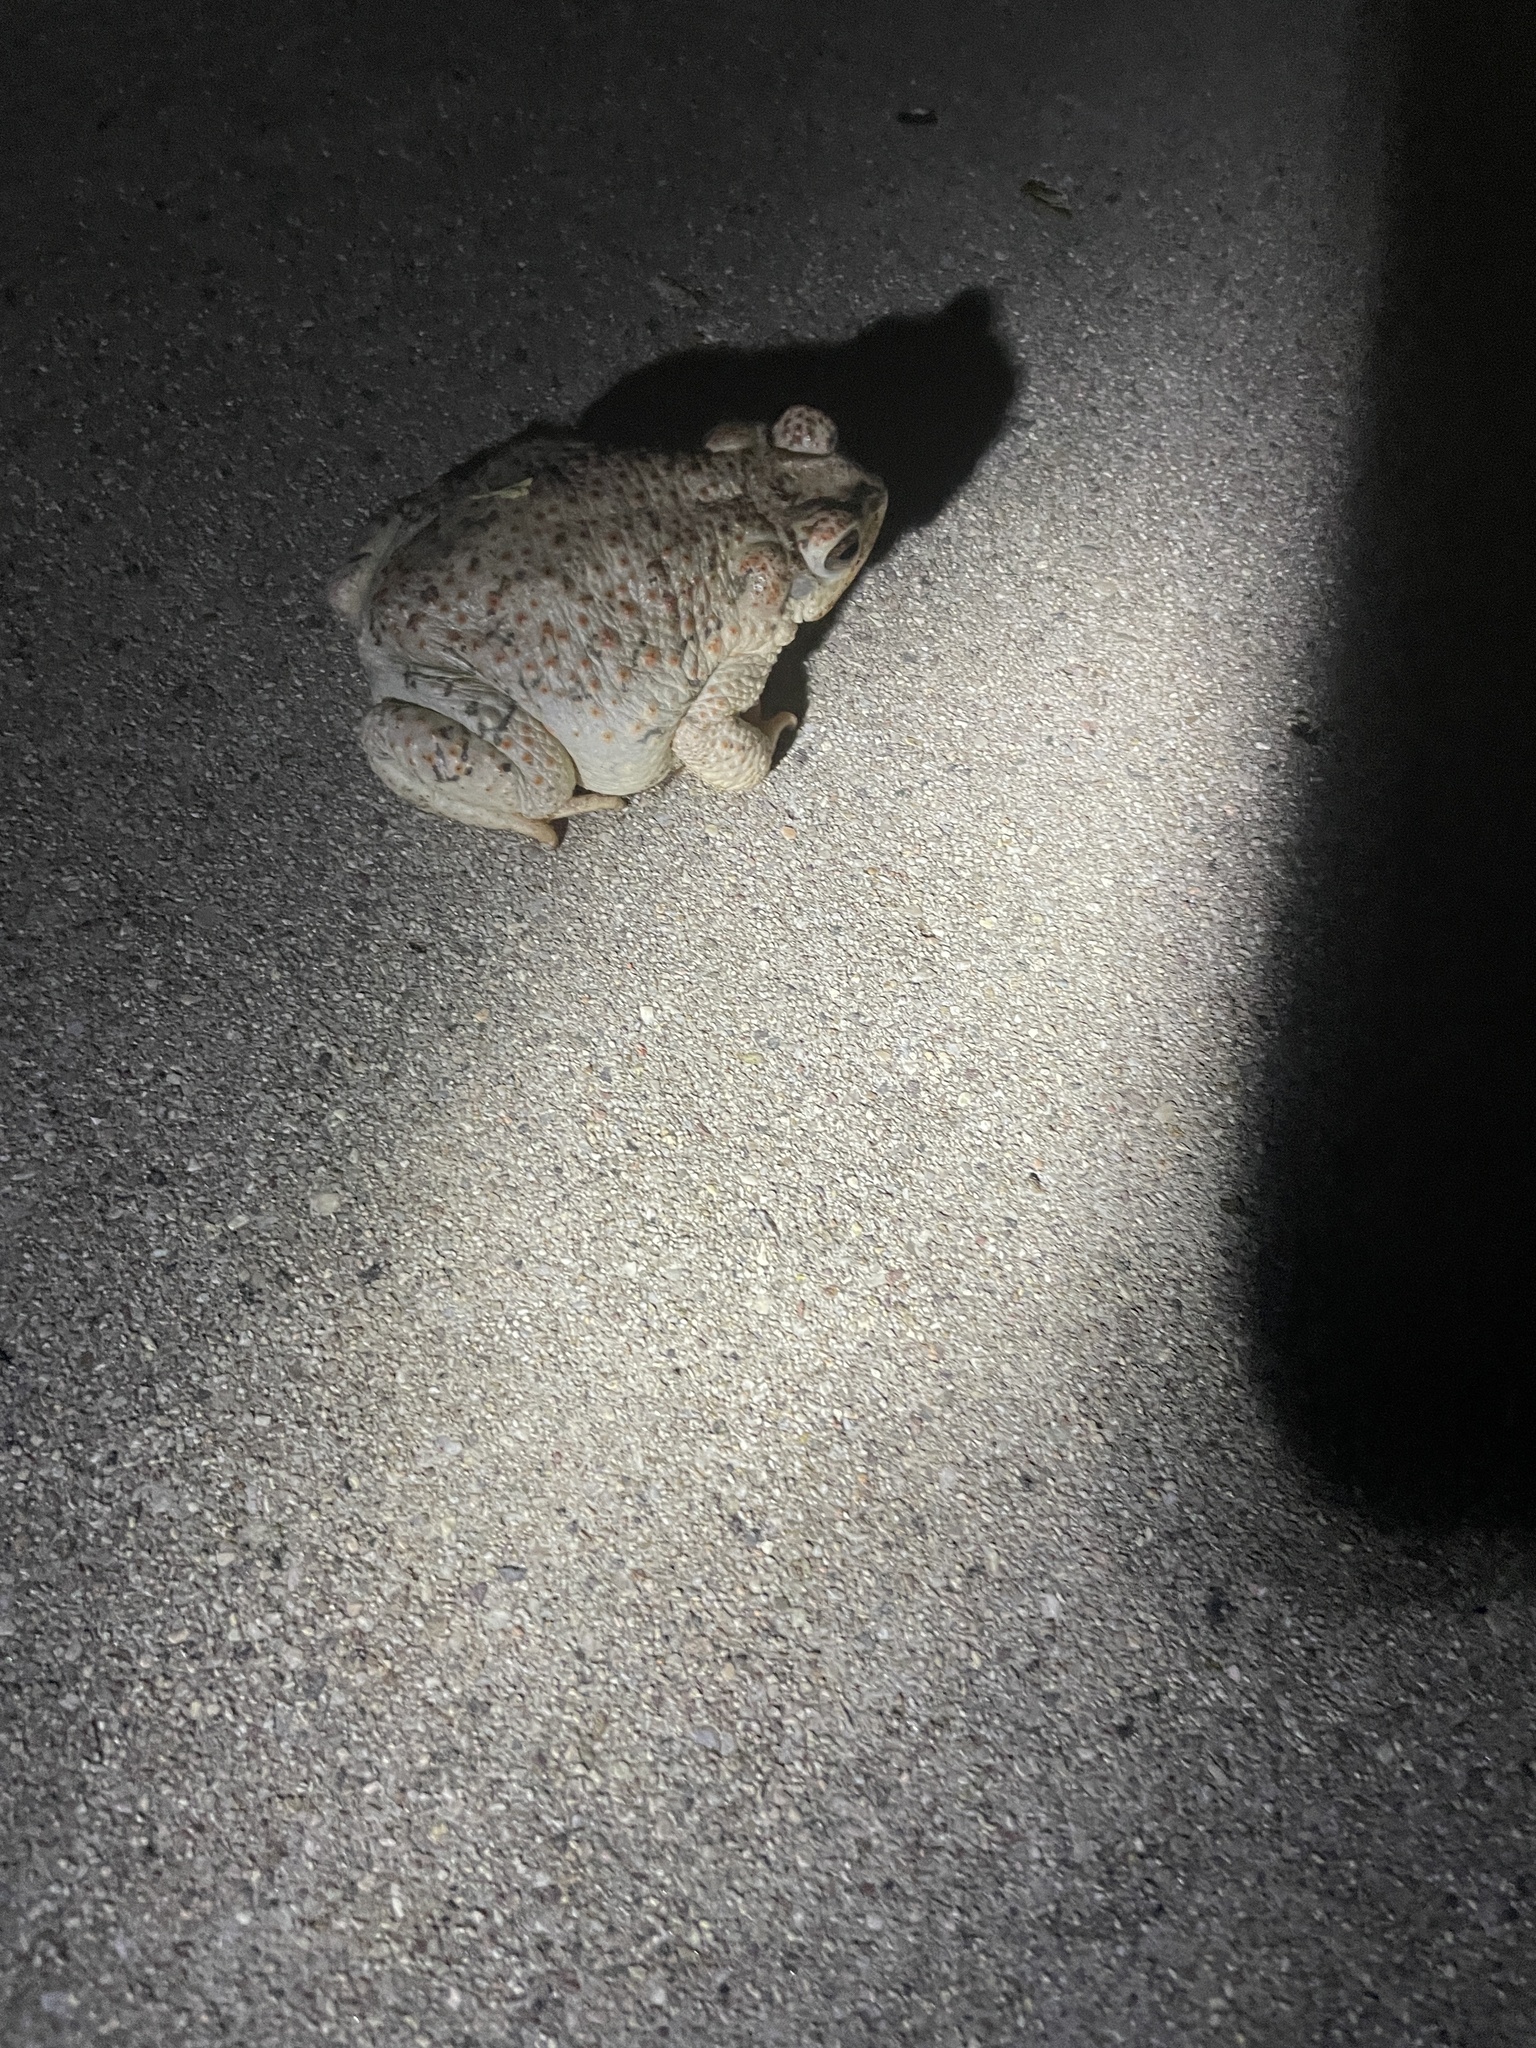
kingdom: Animalia
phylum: Chordata
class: Amphibia
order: Anura
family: Bufonidae
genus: Anaxyrus
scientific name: Anaxyrus punctatus
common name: Red-spotted toad
